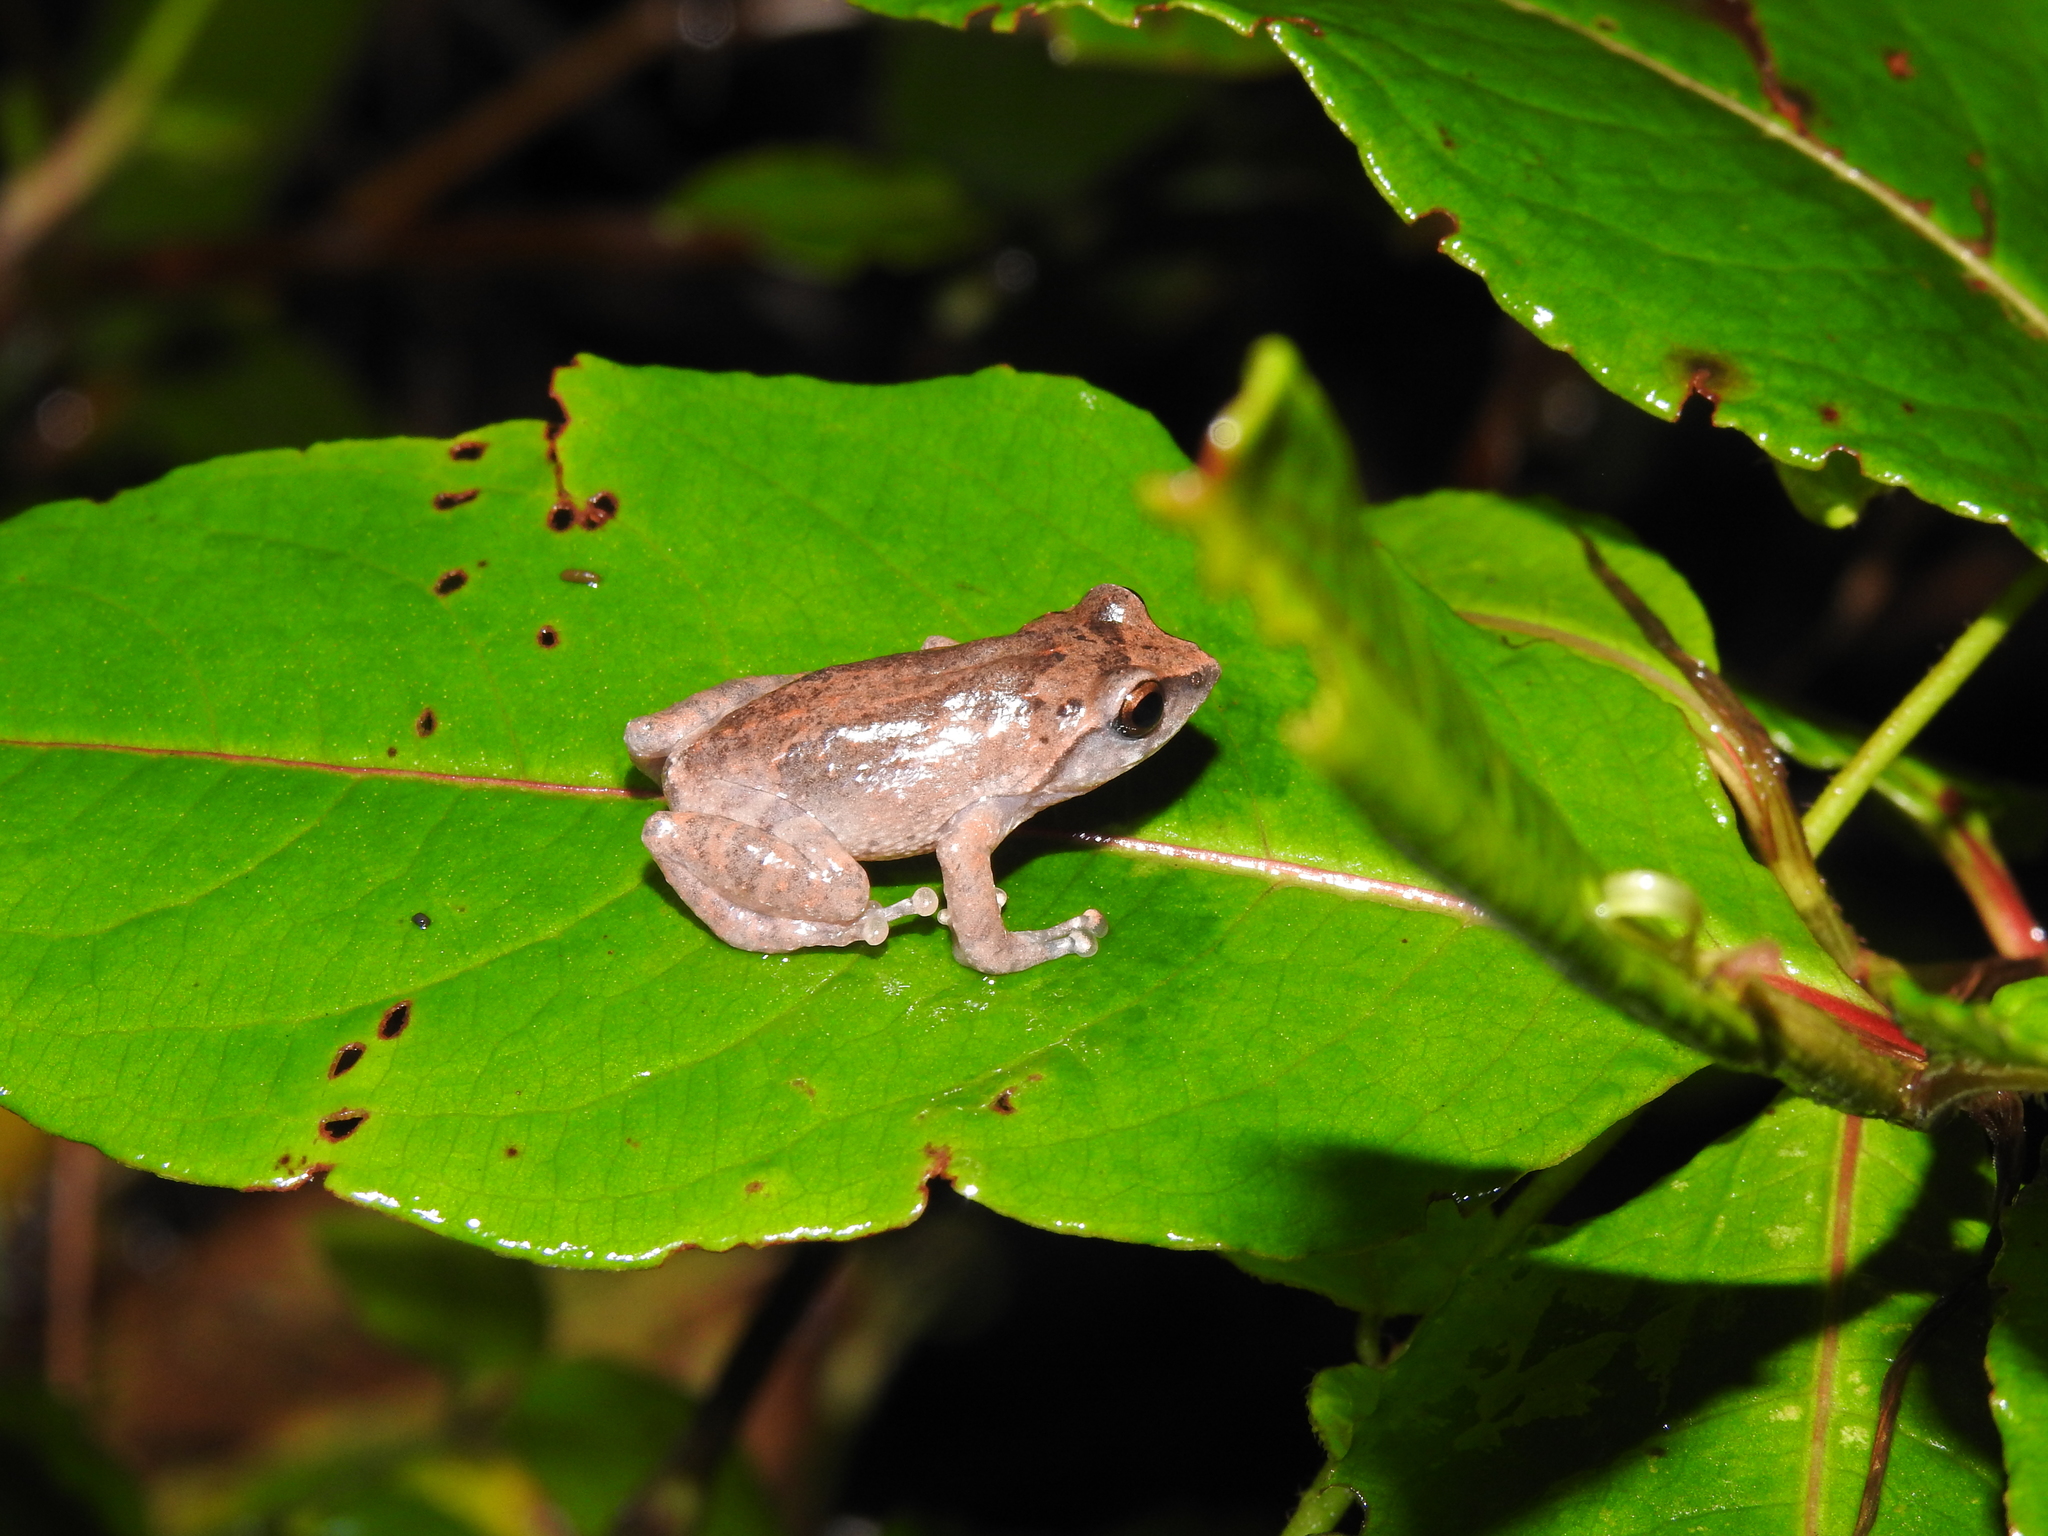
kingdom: Animalia
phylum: Chordata
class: Amphibia
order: Anura
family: Rhacophoridae
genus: Raorchestes
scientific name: Raorchestes dubois
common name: Koadaikanal bush frog
